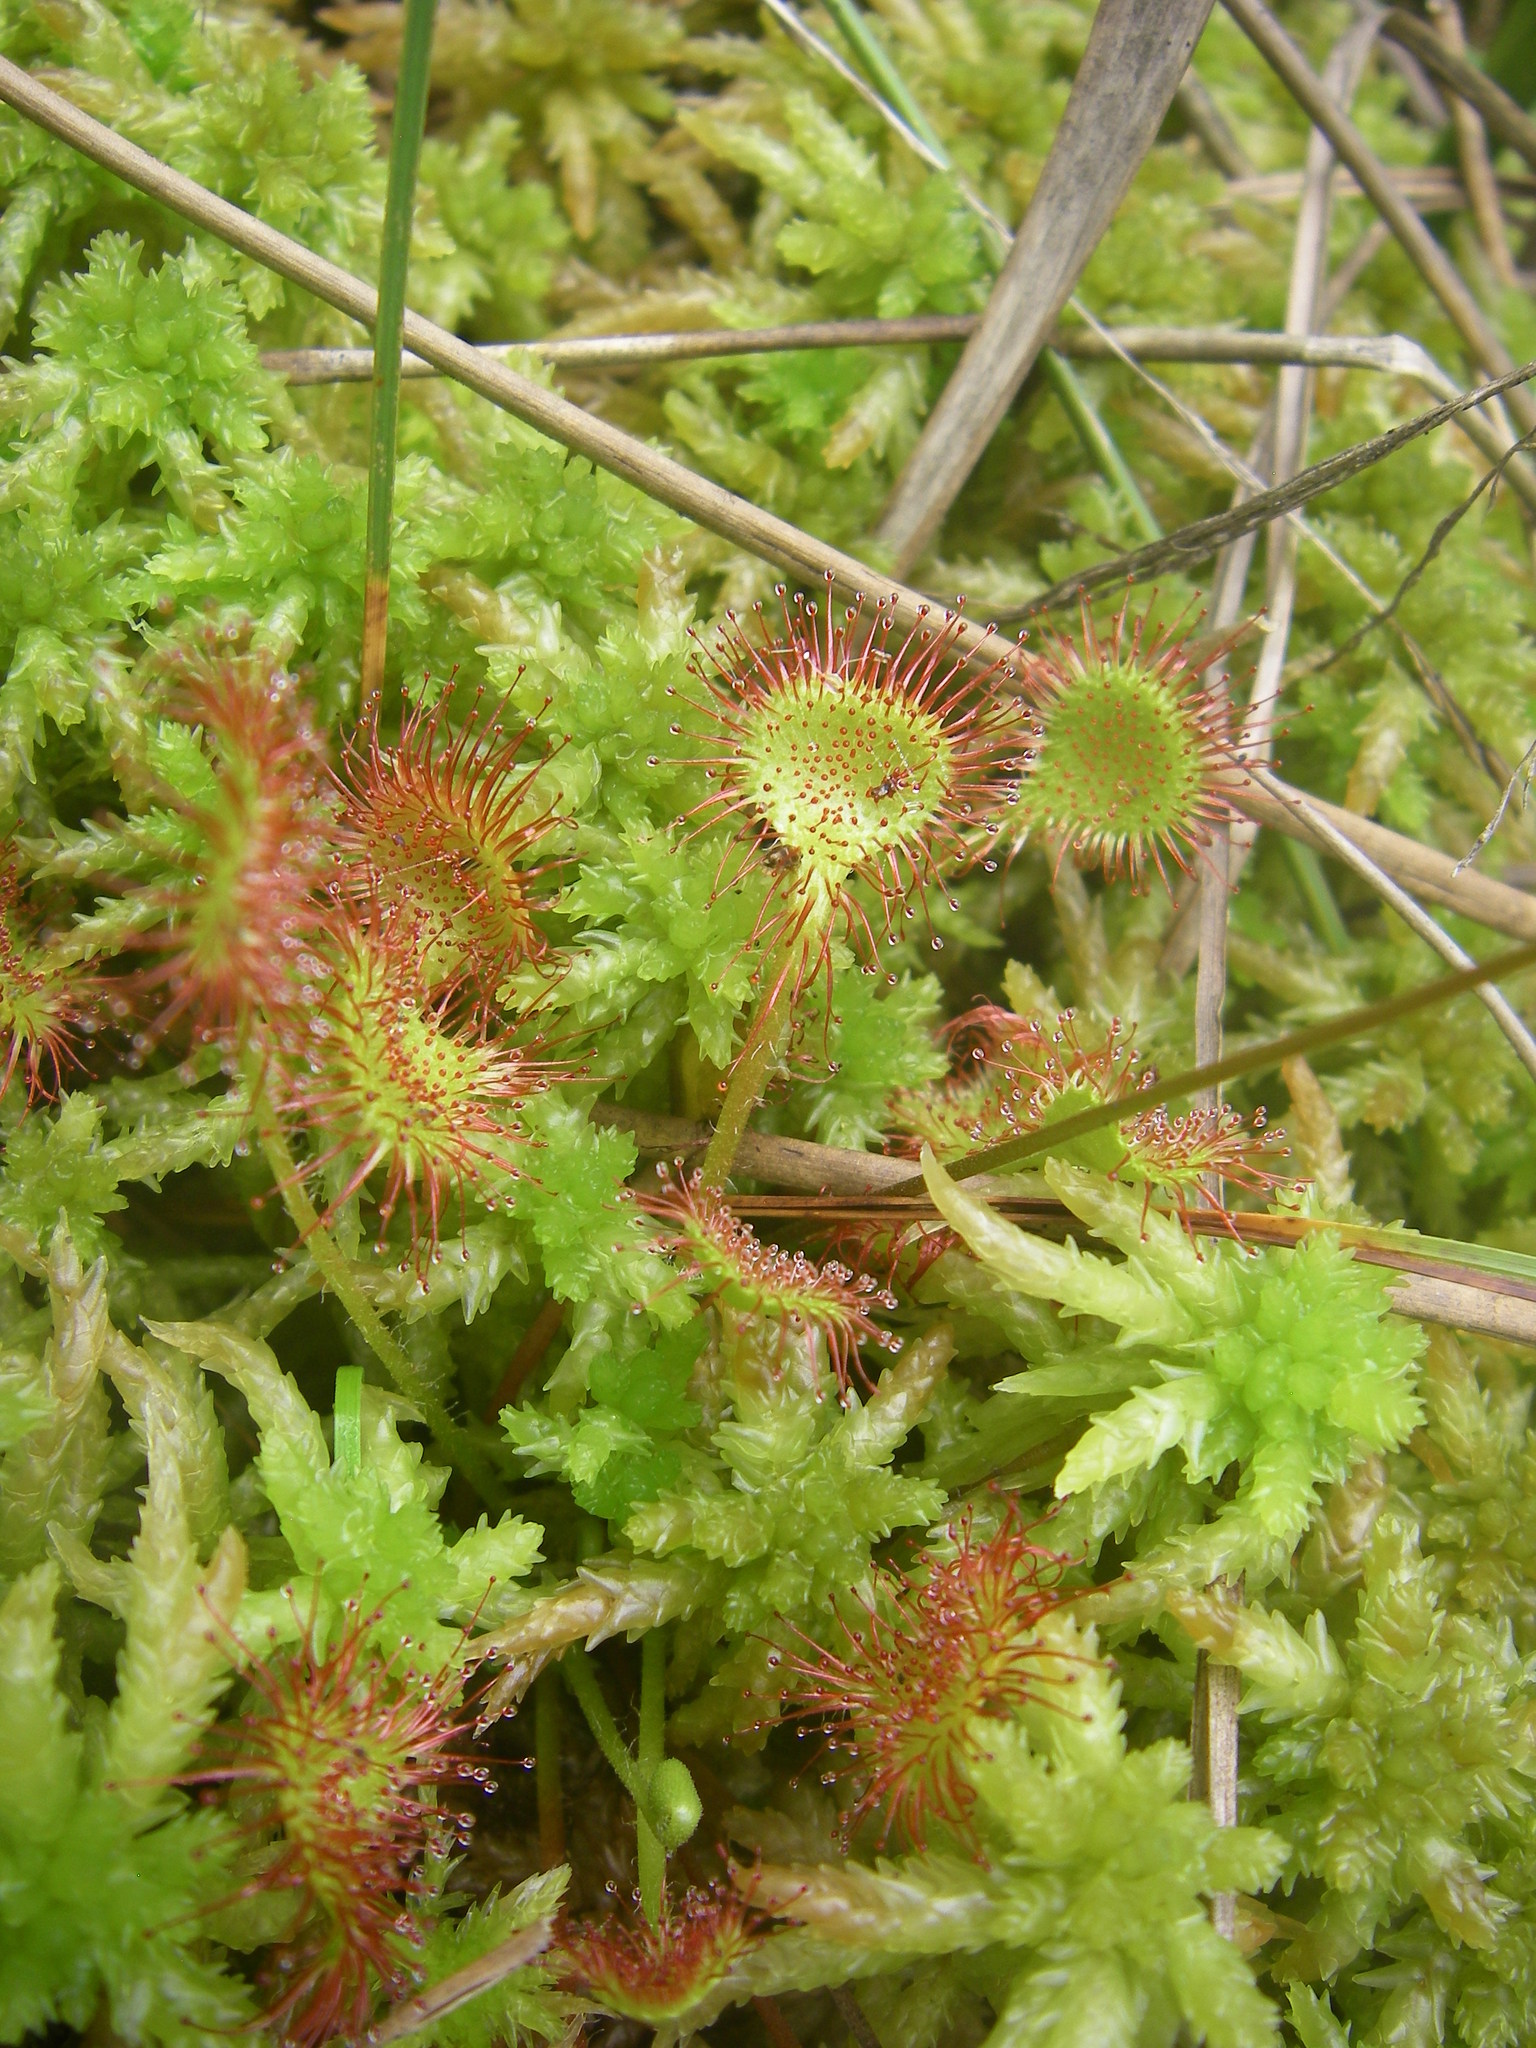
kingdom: Plantae
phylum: Tracheophyta
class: Magnoliopsida
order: Caryophyllales
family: Droseraceae
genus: Drosera
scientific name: Drosera rotundifolia
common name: Round-leaved sundew
